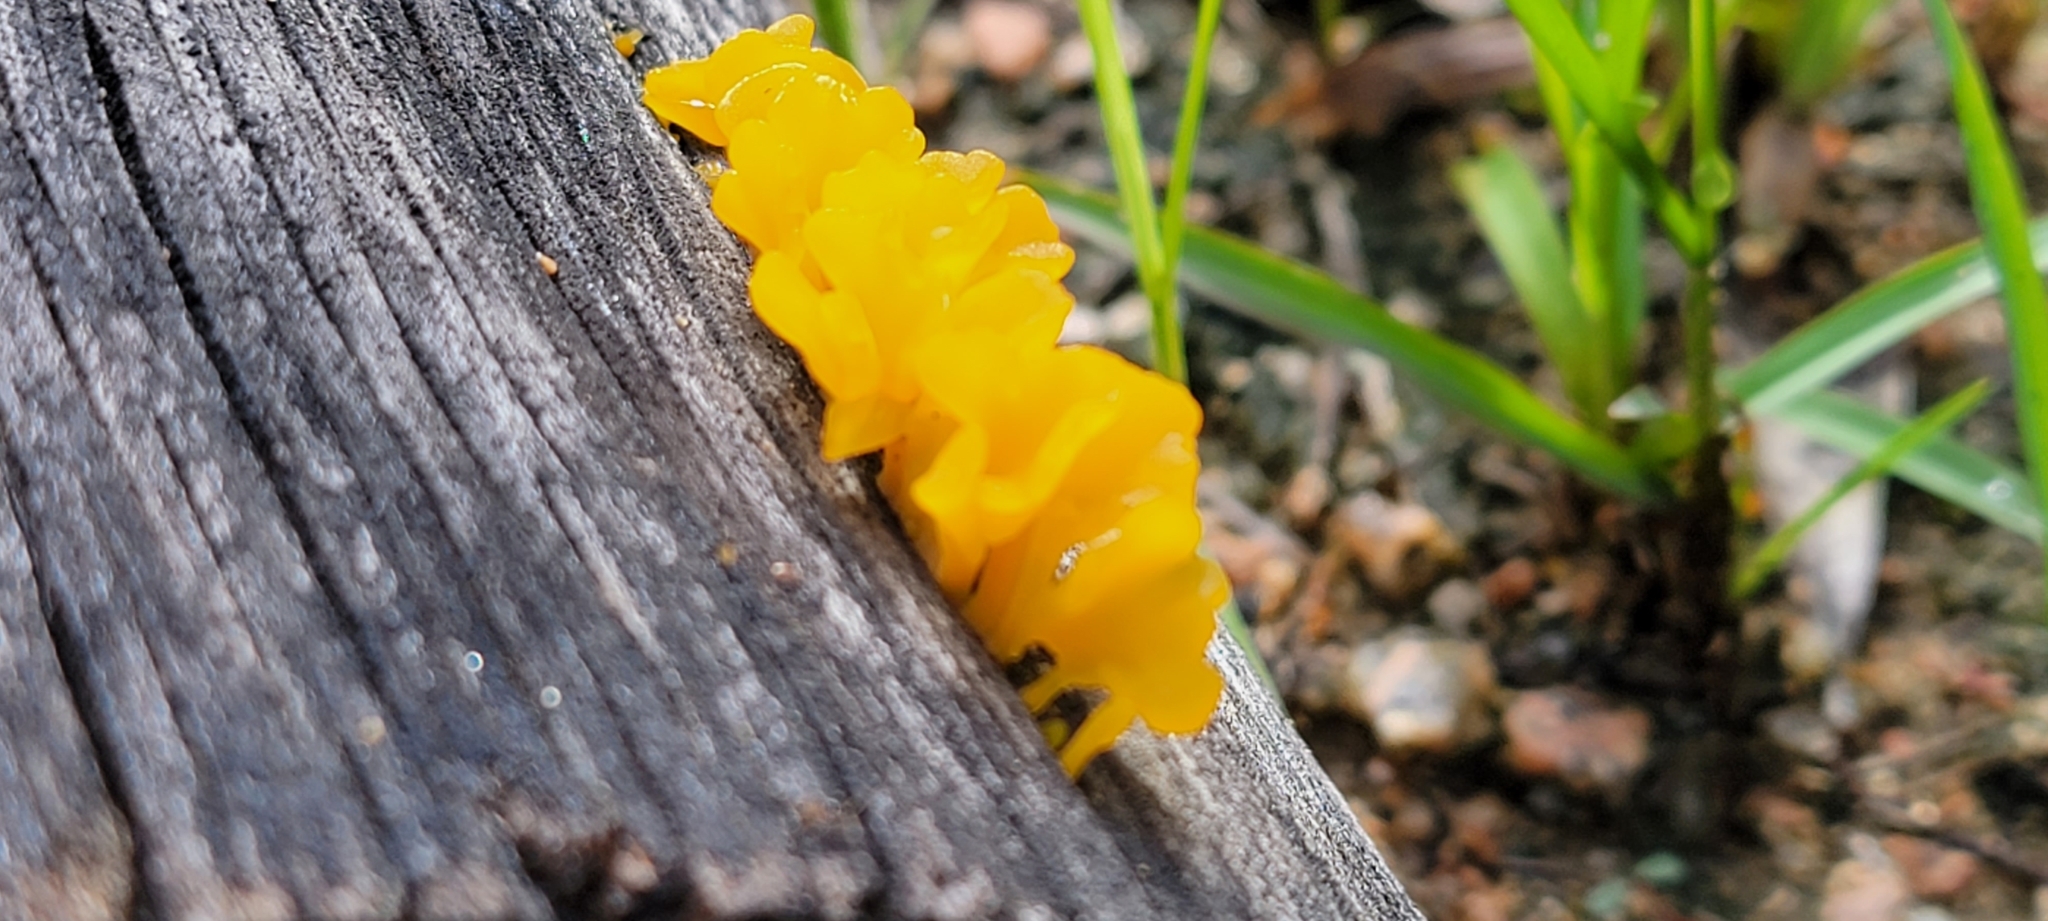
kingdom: Fungi
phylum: Basidiomycota
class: Dacrymycetes
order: Dacrymycetales
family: Dacrymycetaceae
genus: Dacrymyces
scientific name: Dacrymyces spathularius
